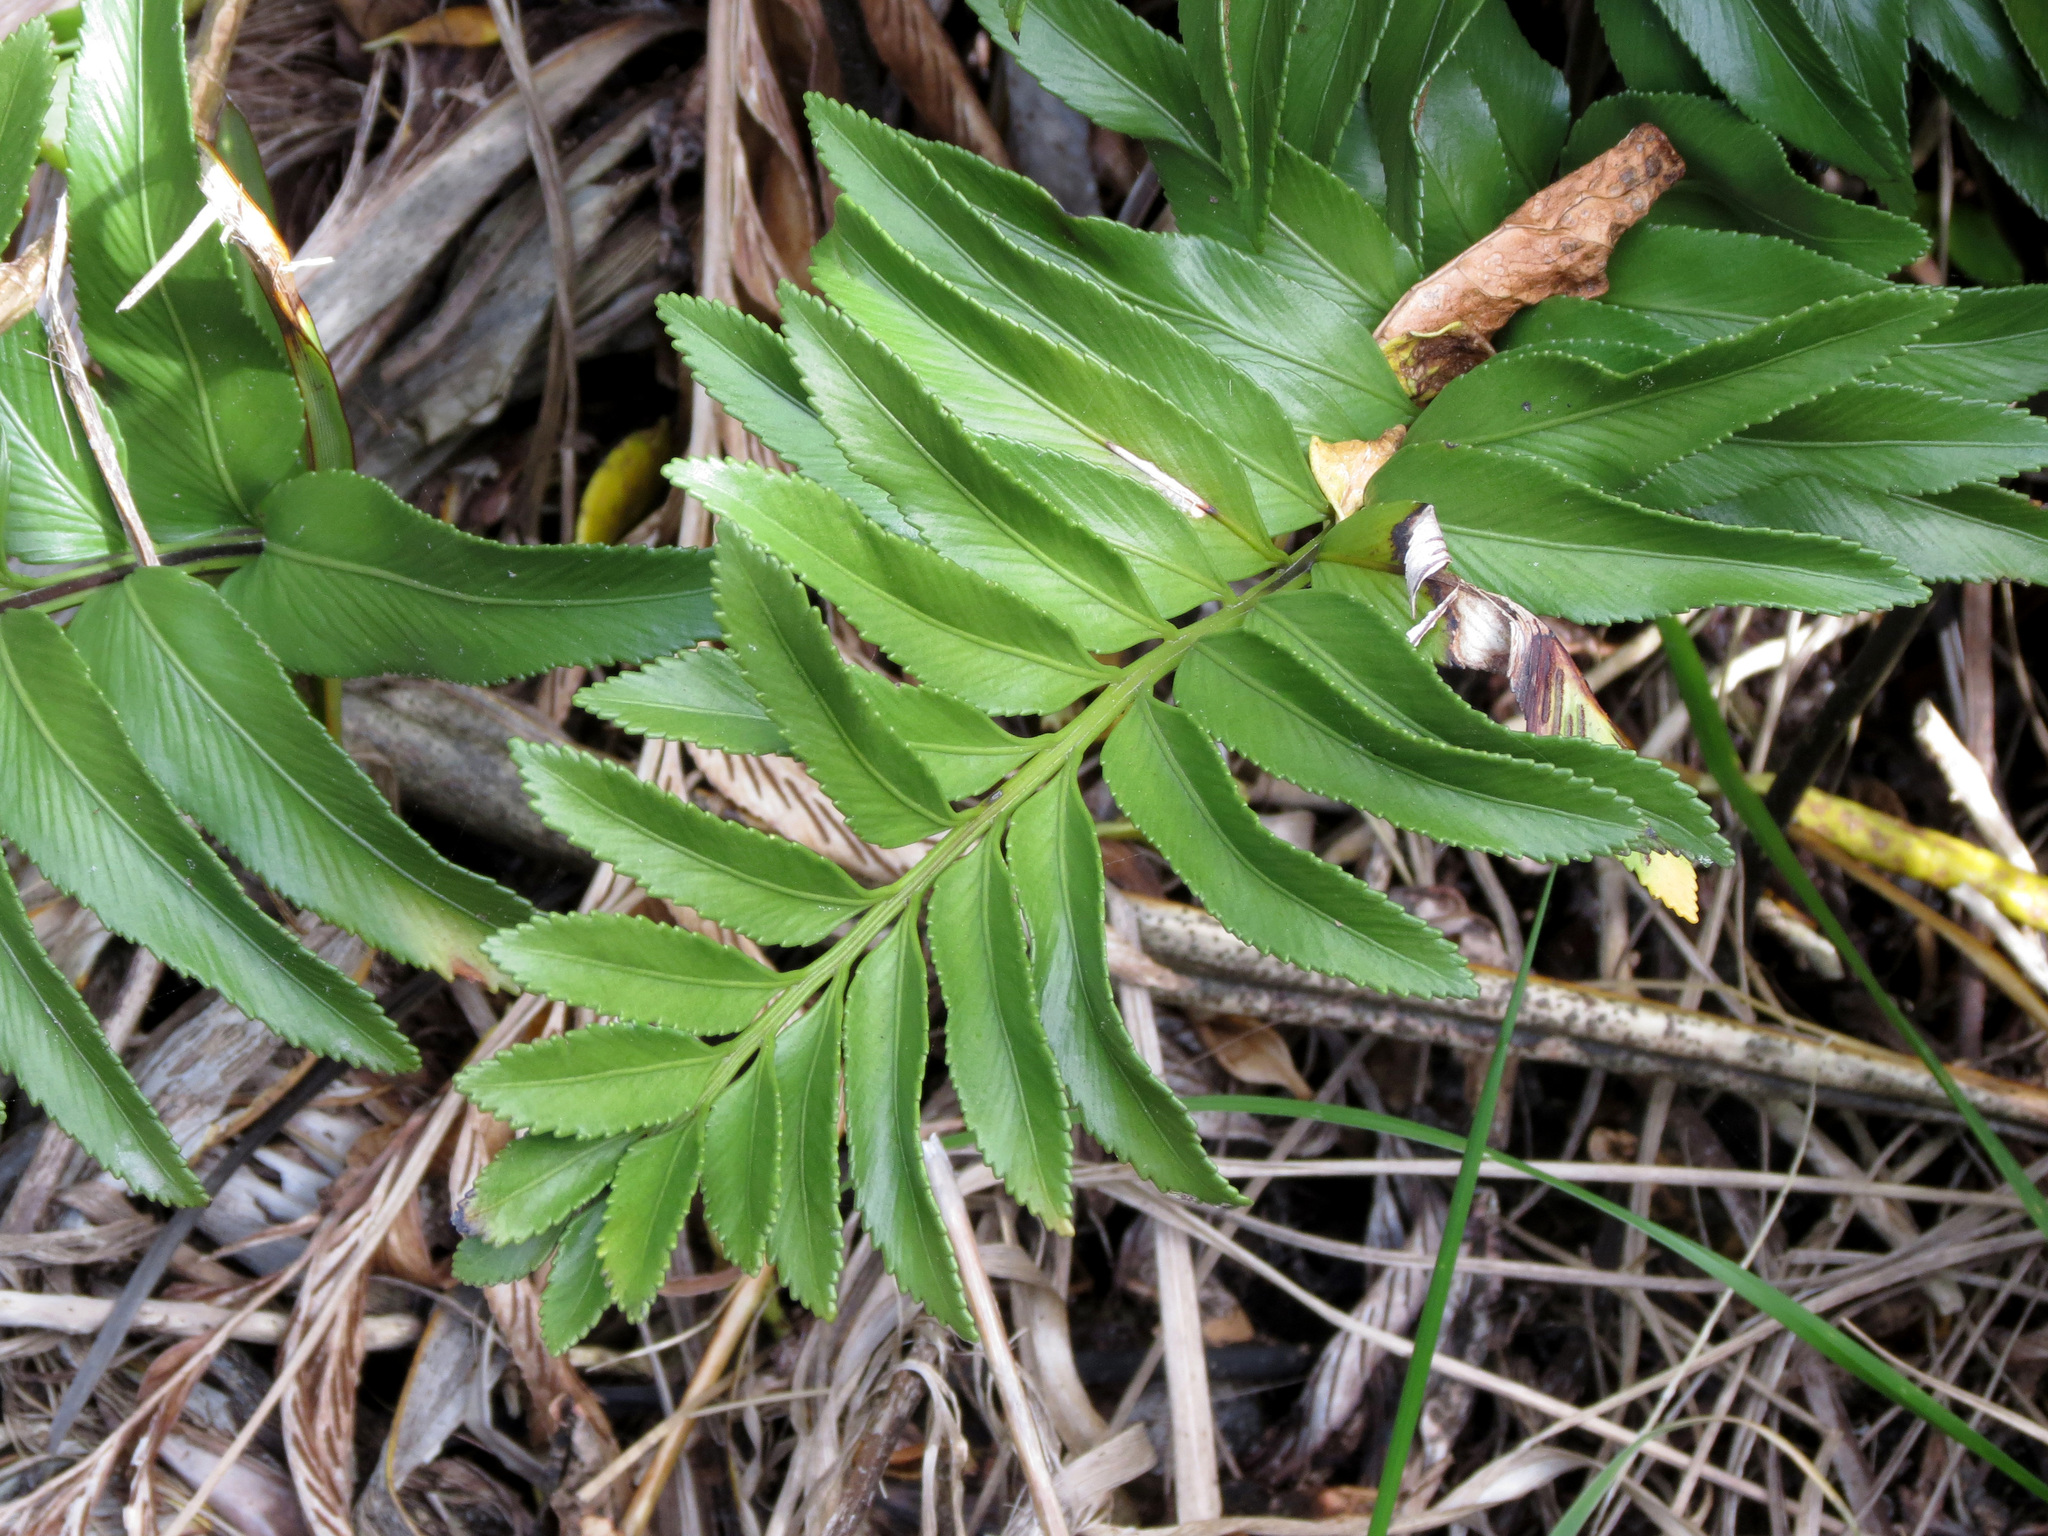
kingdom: Plantae
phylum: Tracheophyta
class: Polypodiopsida
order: Polypodiales
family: Aspleniaceae
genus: Asplenium
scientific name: Asplenium obtusatum
